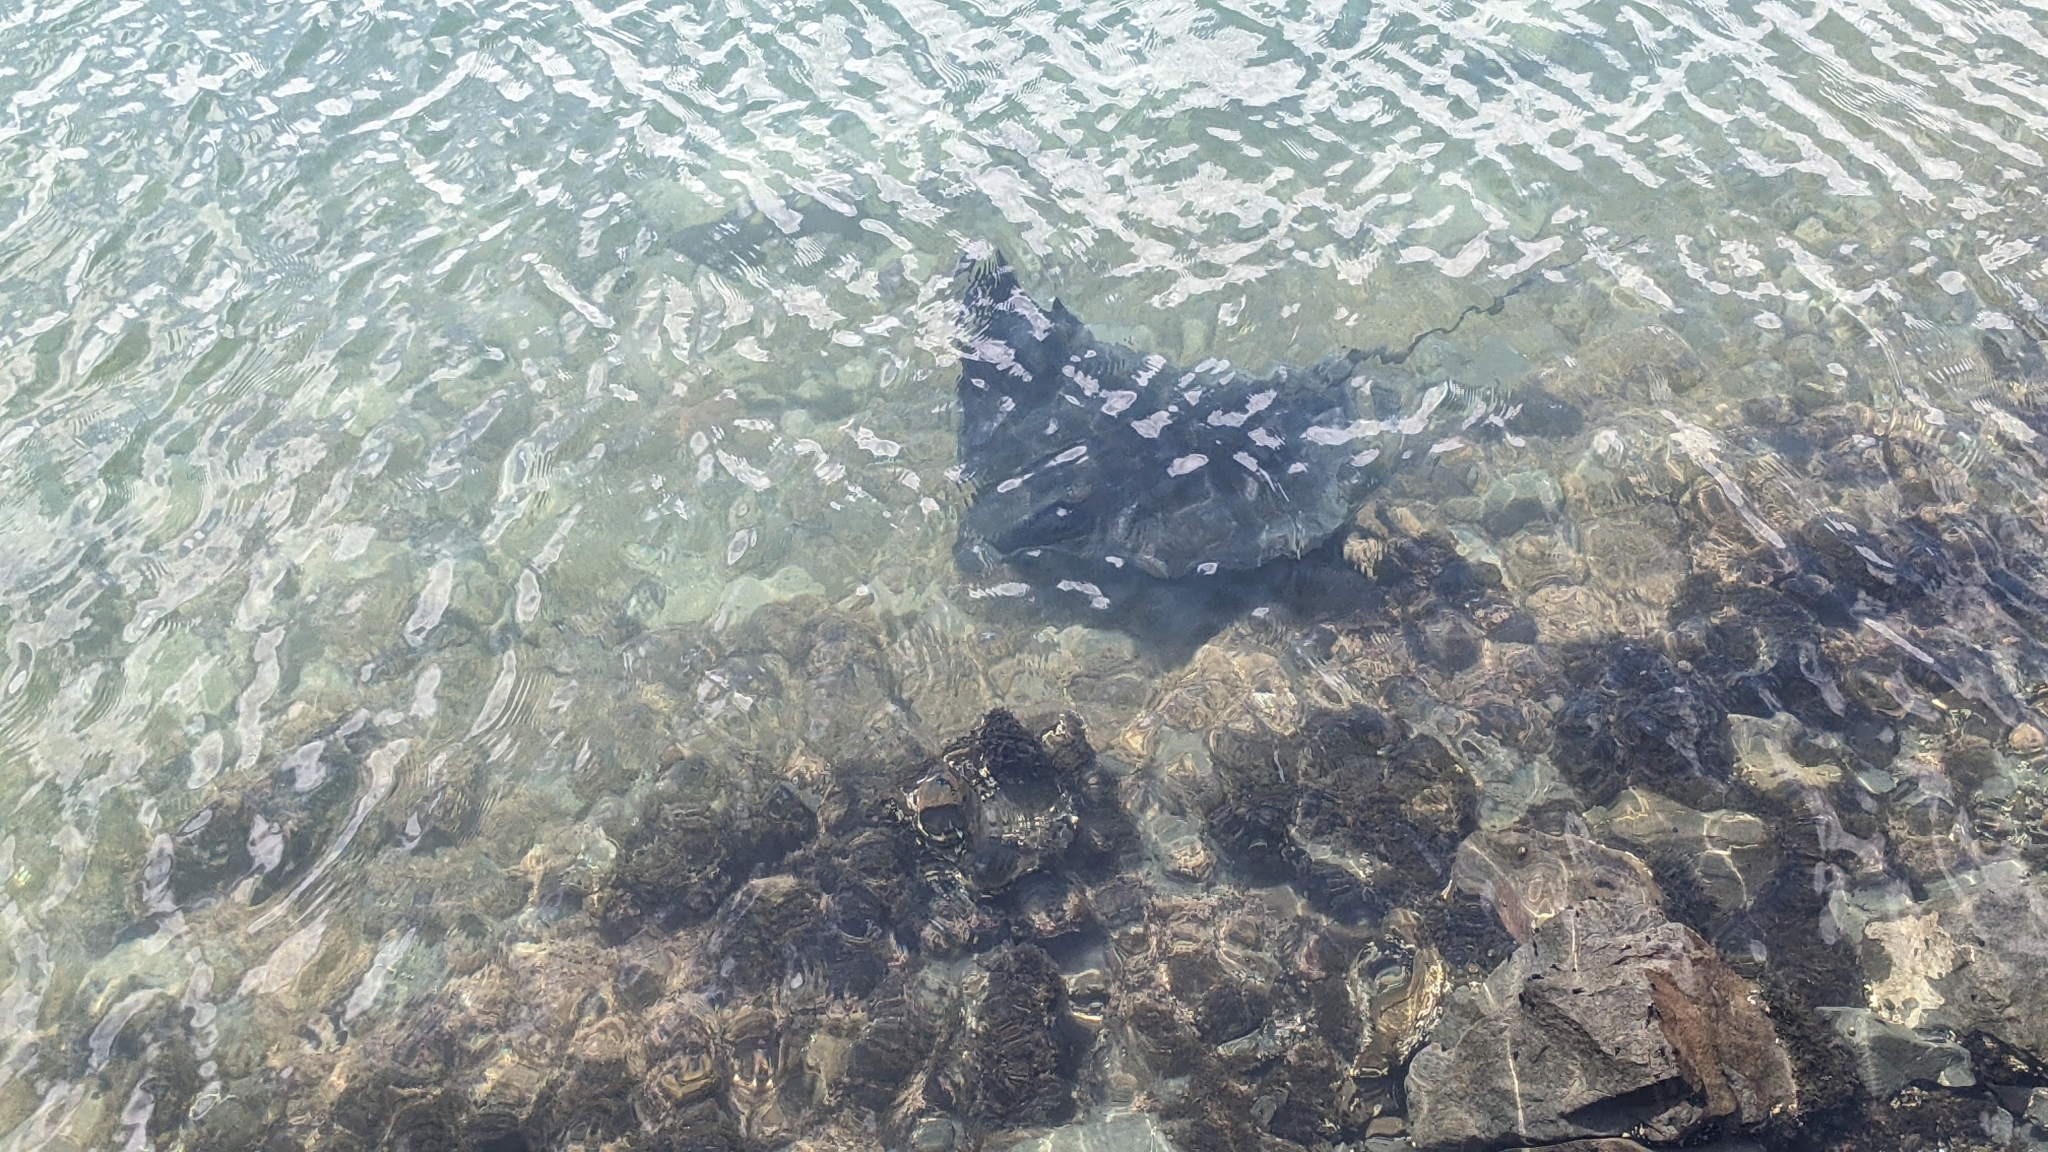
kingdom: Animalia
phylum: Chordata
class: Elasmobranchii
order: Myliobatiformes
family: Myliobatidae
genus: Myliobatis
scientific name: Myliobatis tenuicaudatus
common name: Eagle ray
